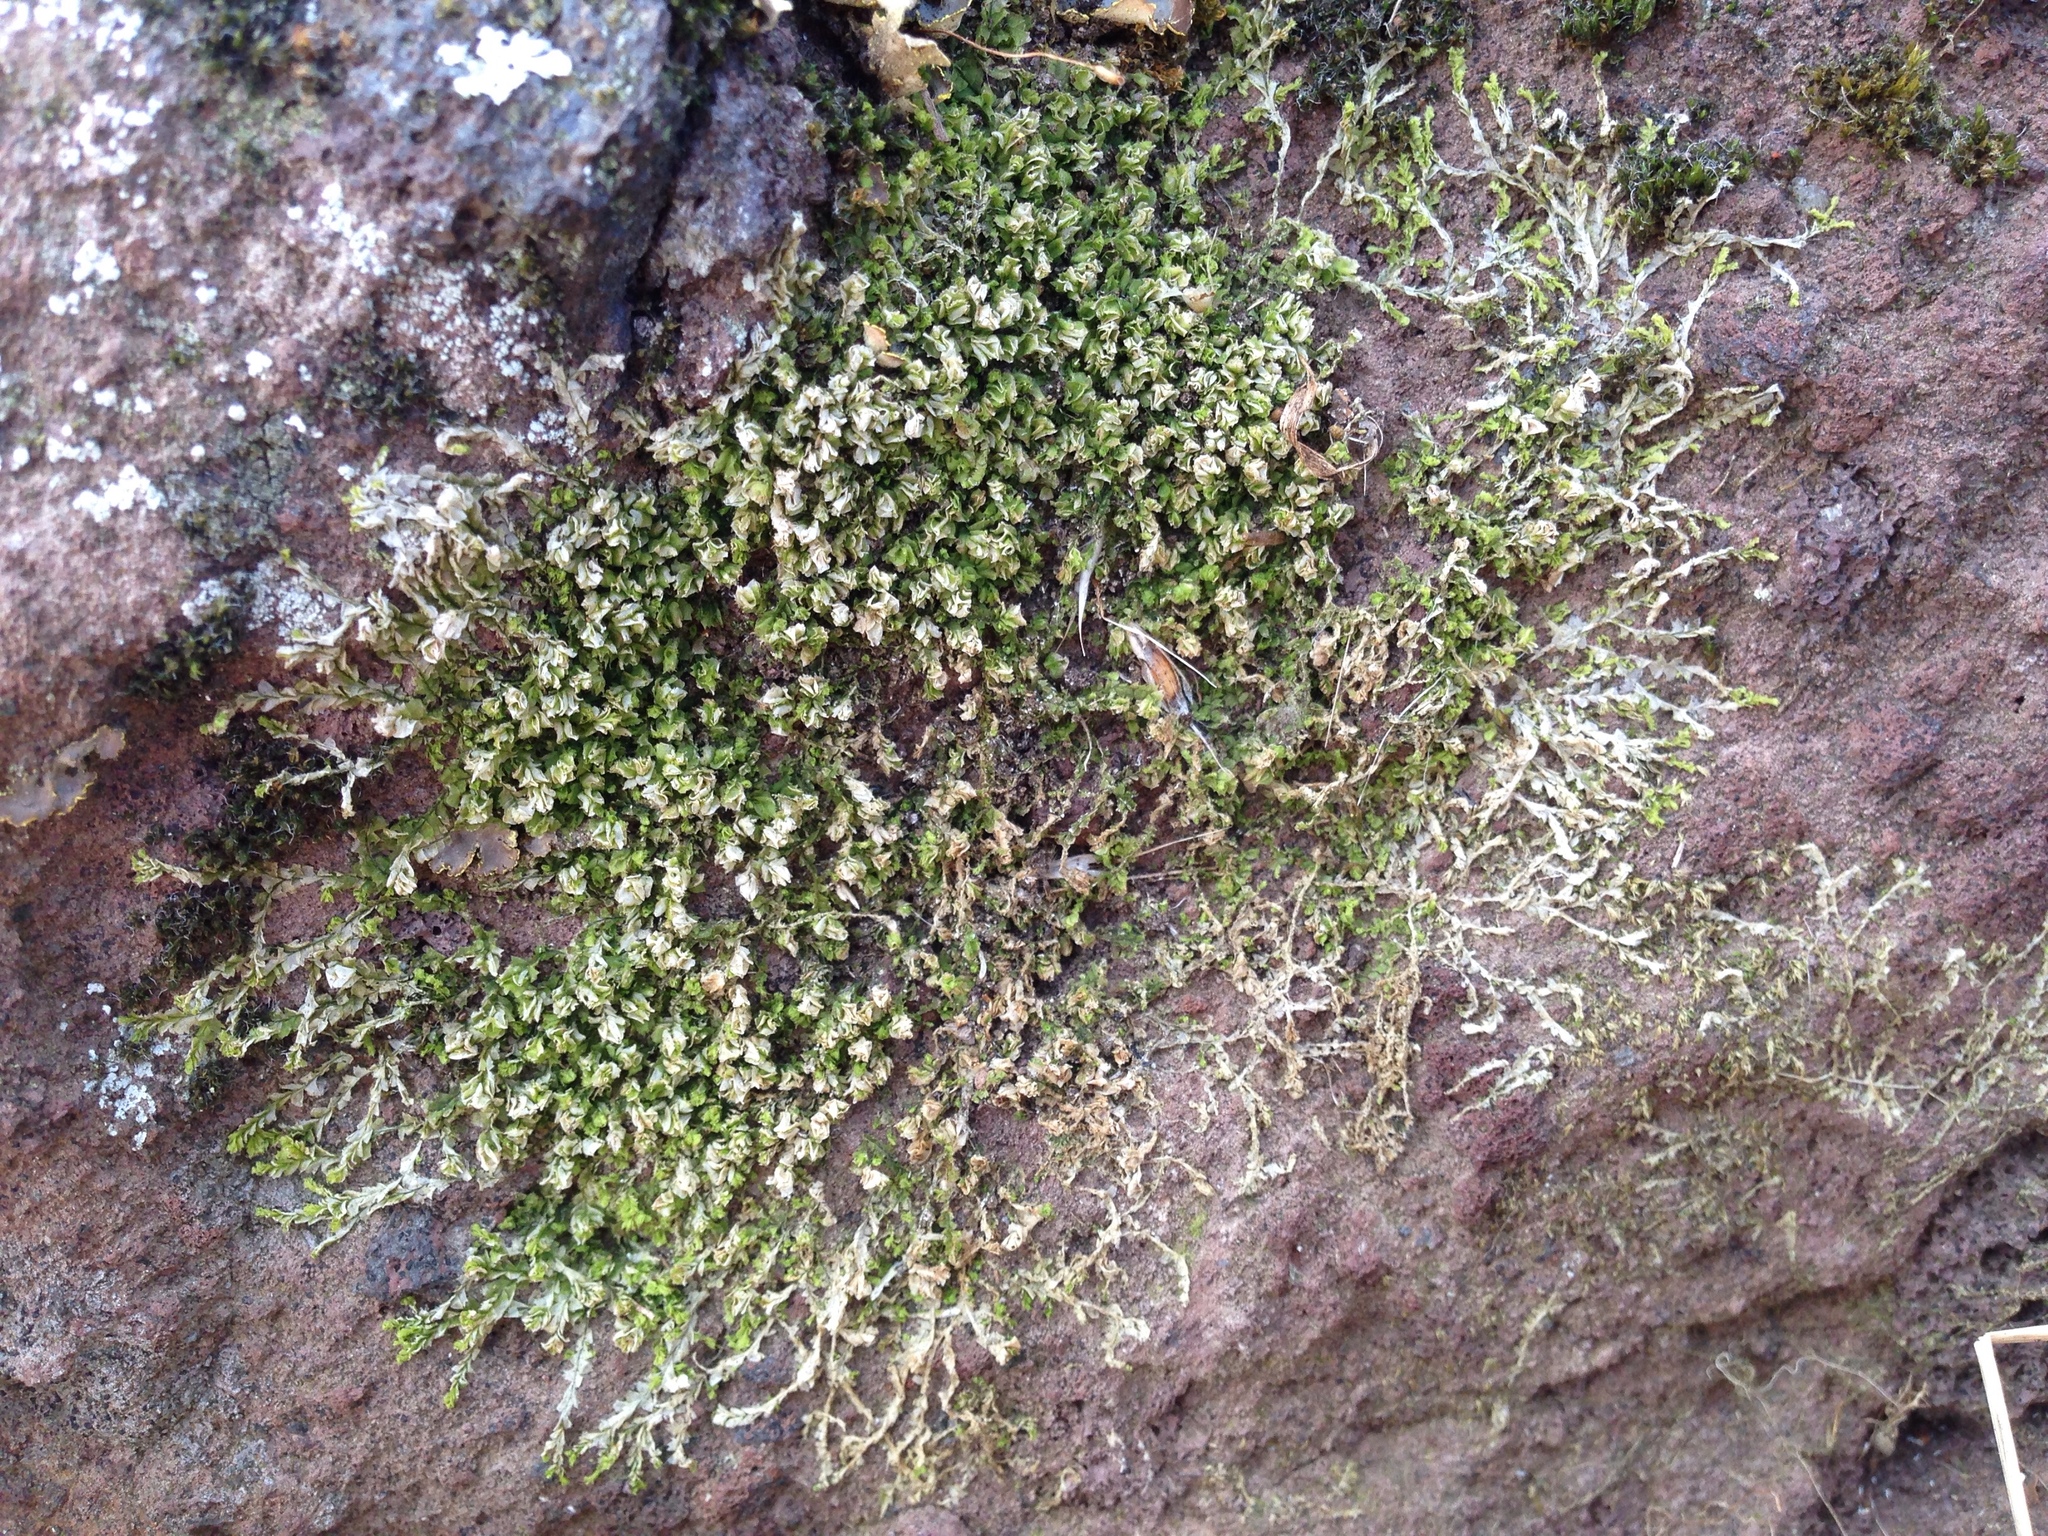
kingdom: Plantae
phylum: Bryophyta
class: Bryopsida
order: Hedwigiales
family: Hedwigiaceae
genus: Hedwigia
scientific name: Hedwigia ciliata
